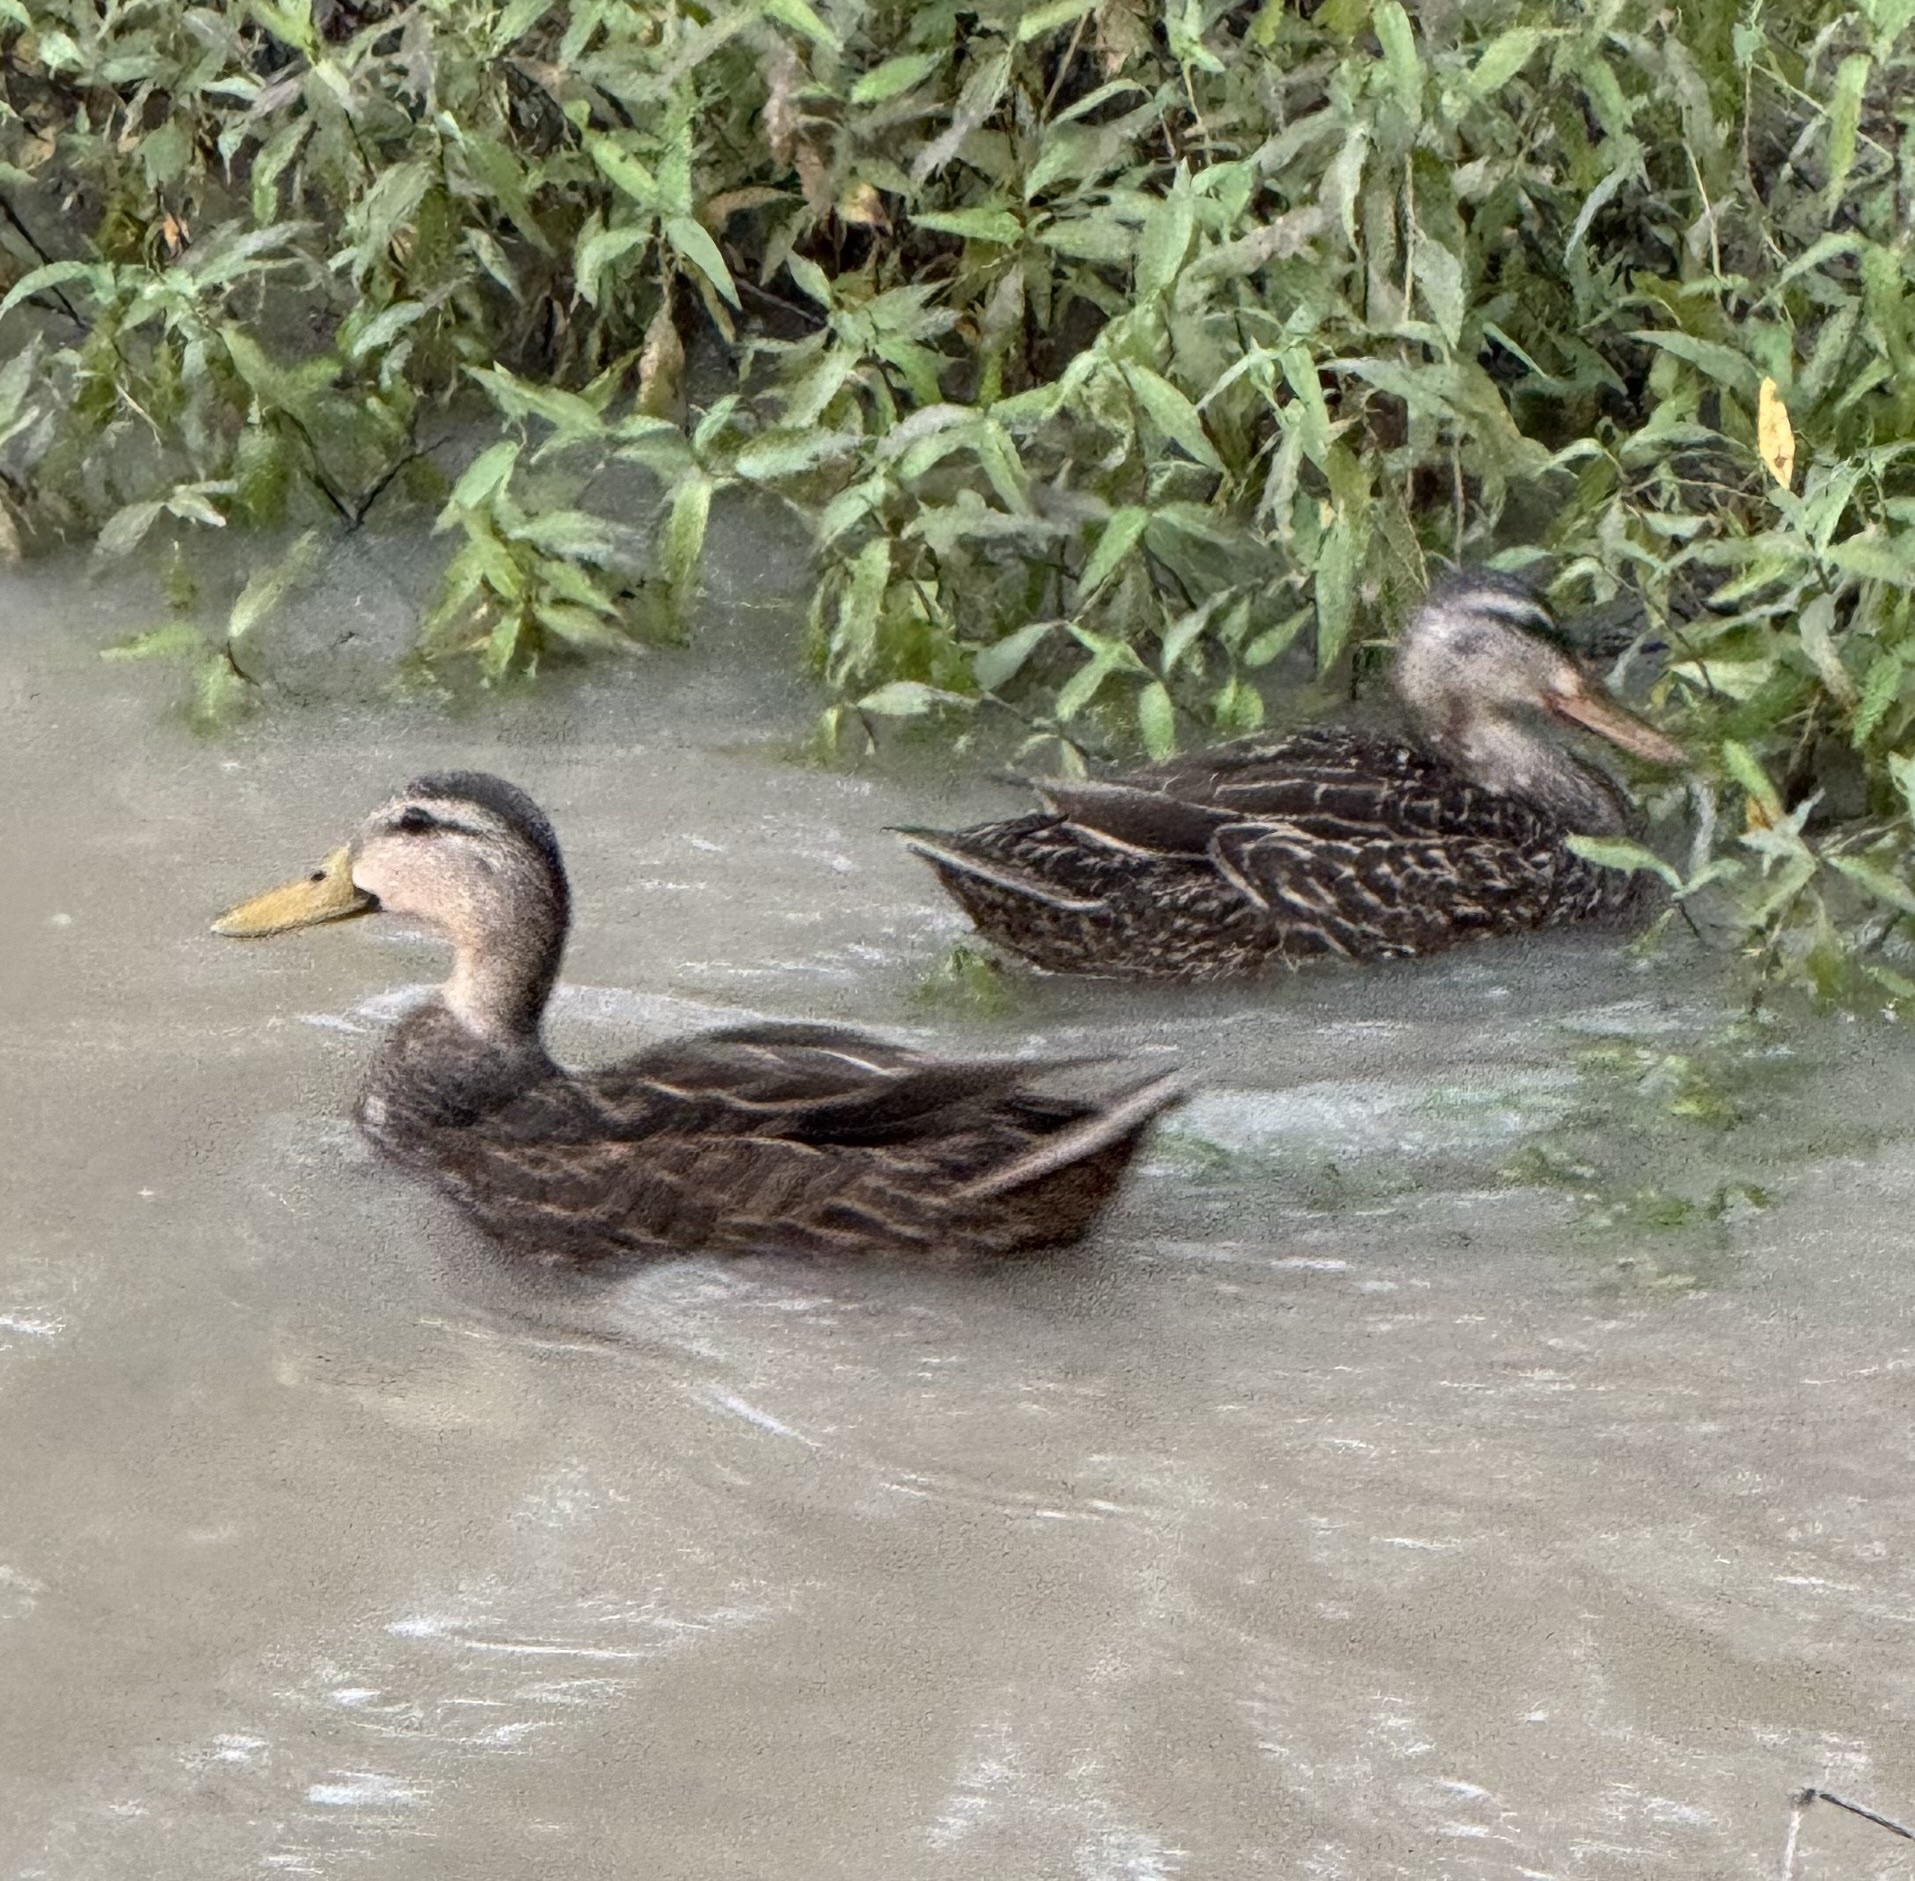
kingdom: Animalia
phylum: Chordata
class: Aves
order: Anseriformes
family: Anatidae
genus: Anas
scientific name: Anas fulvigula
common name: Mottled duck
